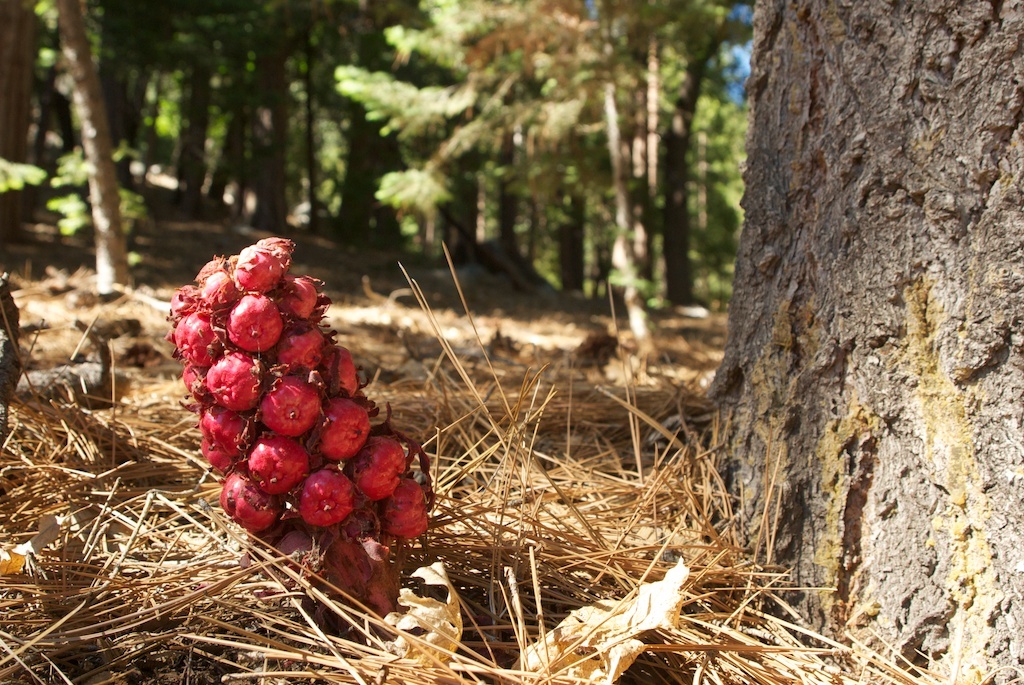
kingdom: Plantae
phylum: Tracheophyta
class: Magnoliopsida
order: Ericales
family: Ericaceae
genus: Sarcodes
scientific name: Sarcodes sanguinea
